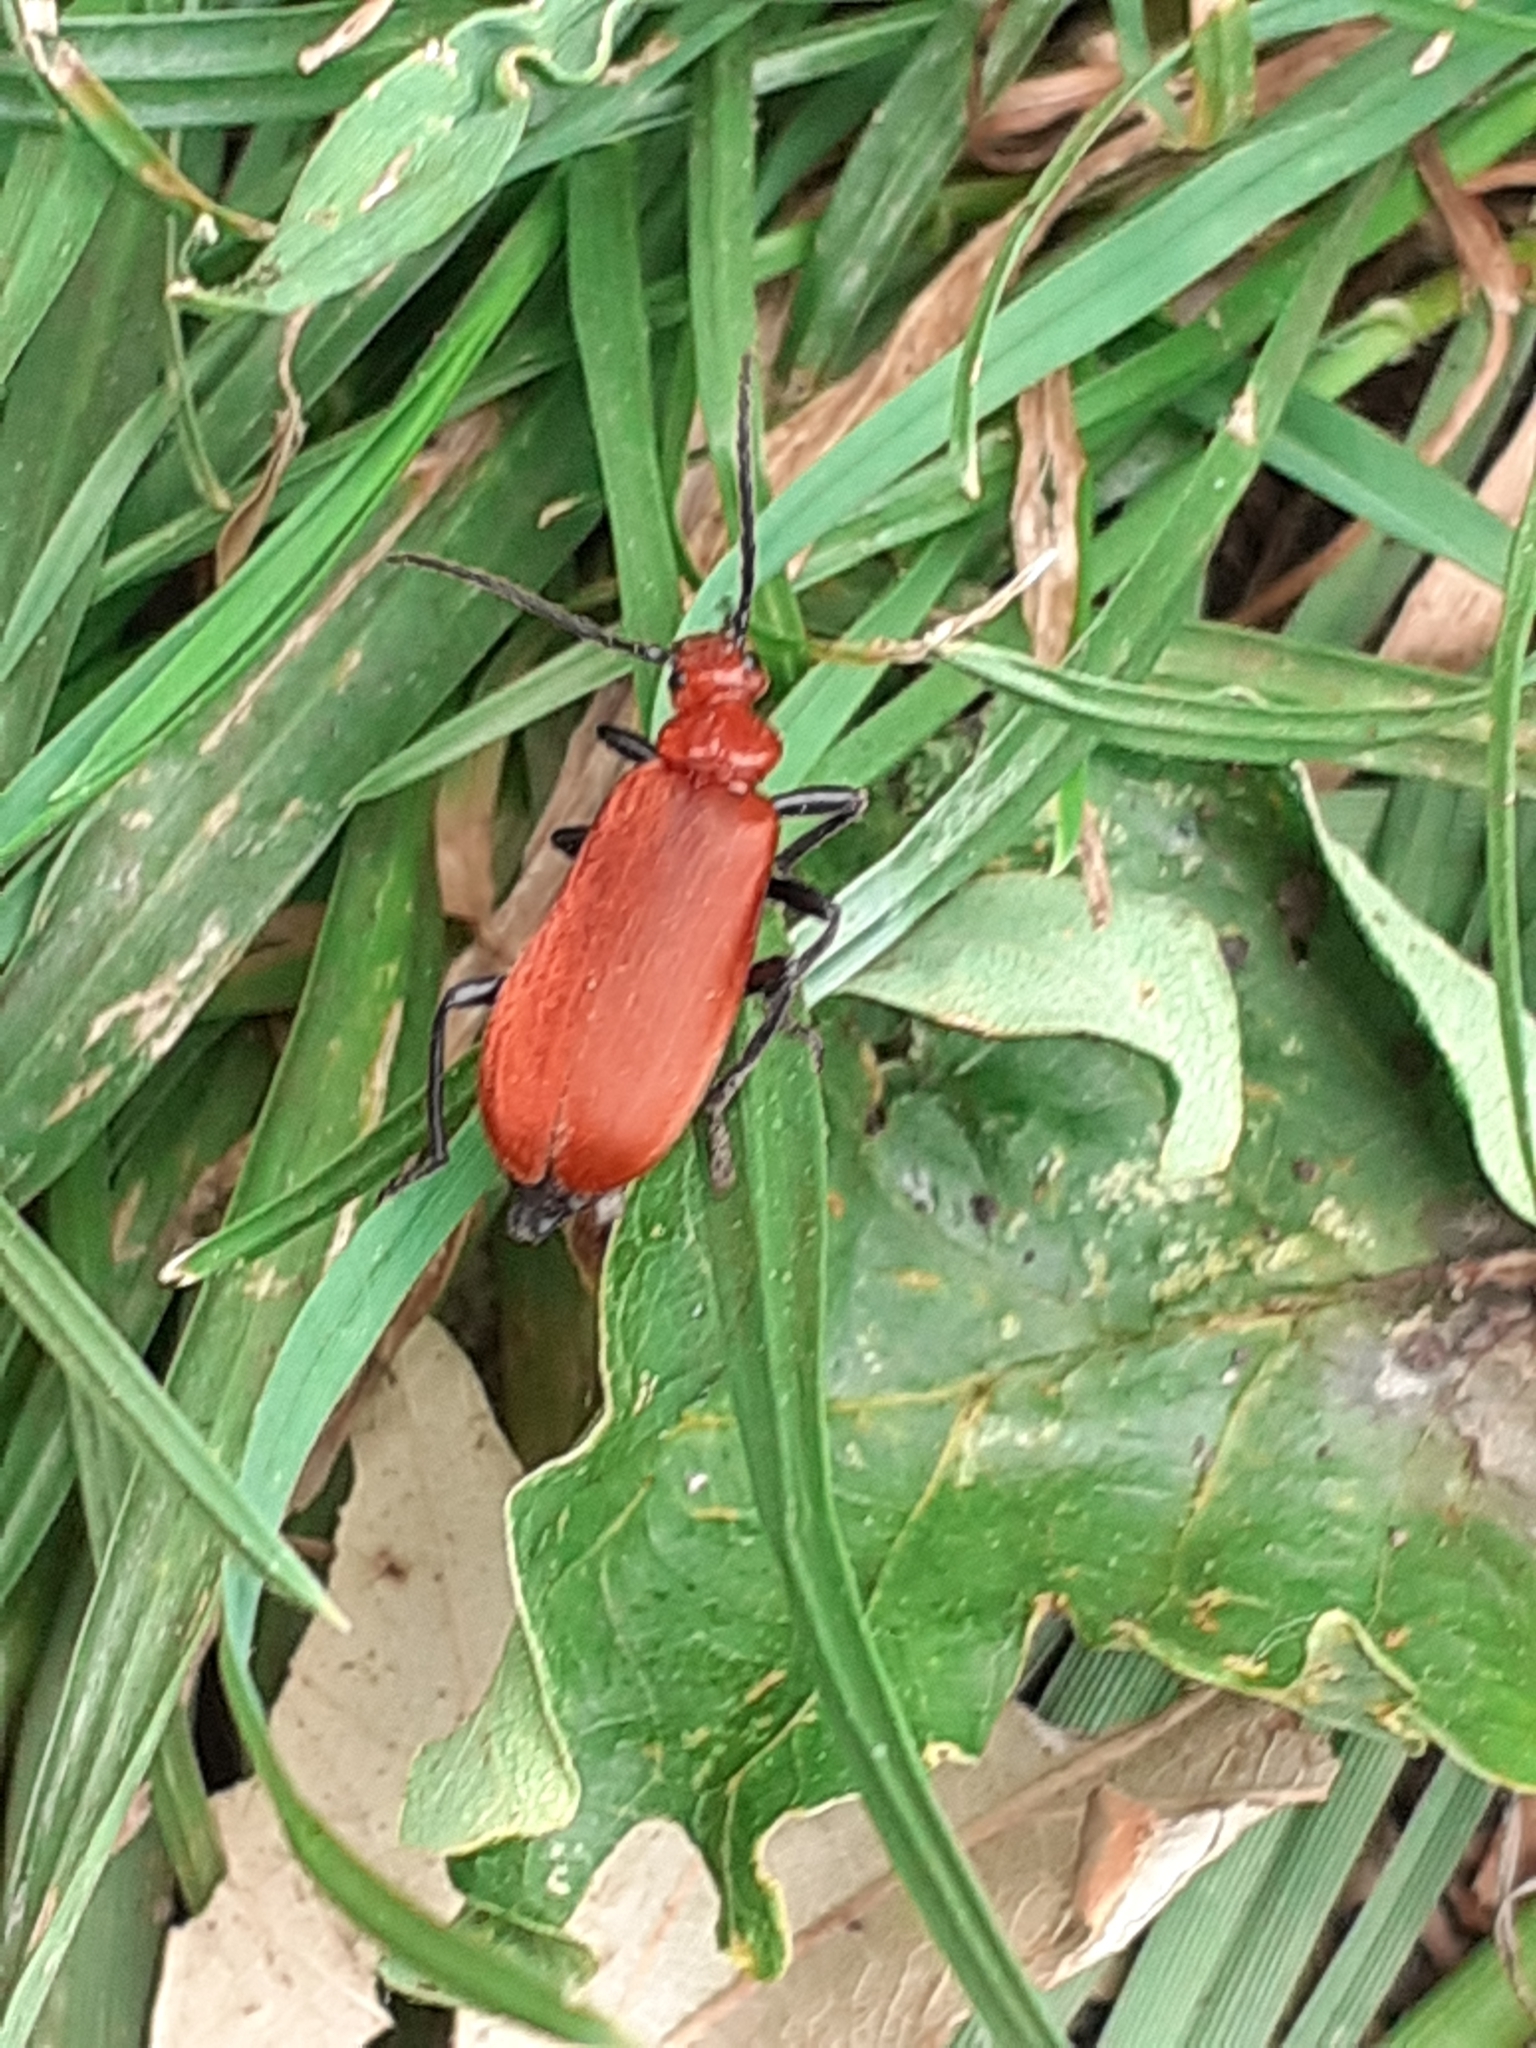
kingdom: Animalia
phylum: Arthropoda
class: Insecta
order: Coleoptera
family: Pyrochroidae
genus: Pyrochroa
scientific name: Pyrochroa serraticornis
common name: Red-headed cardinal beetle
